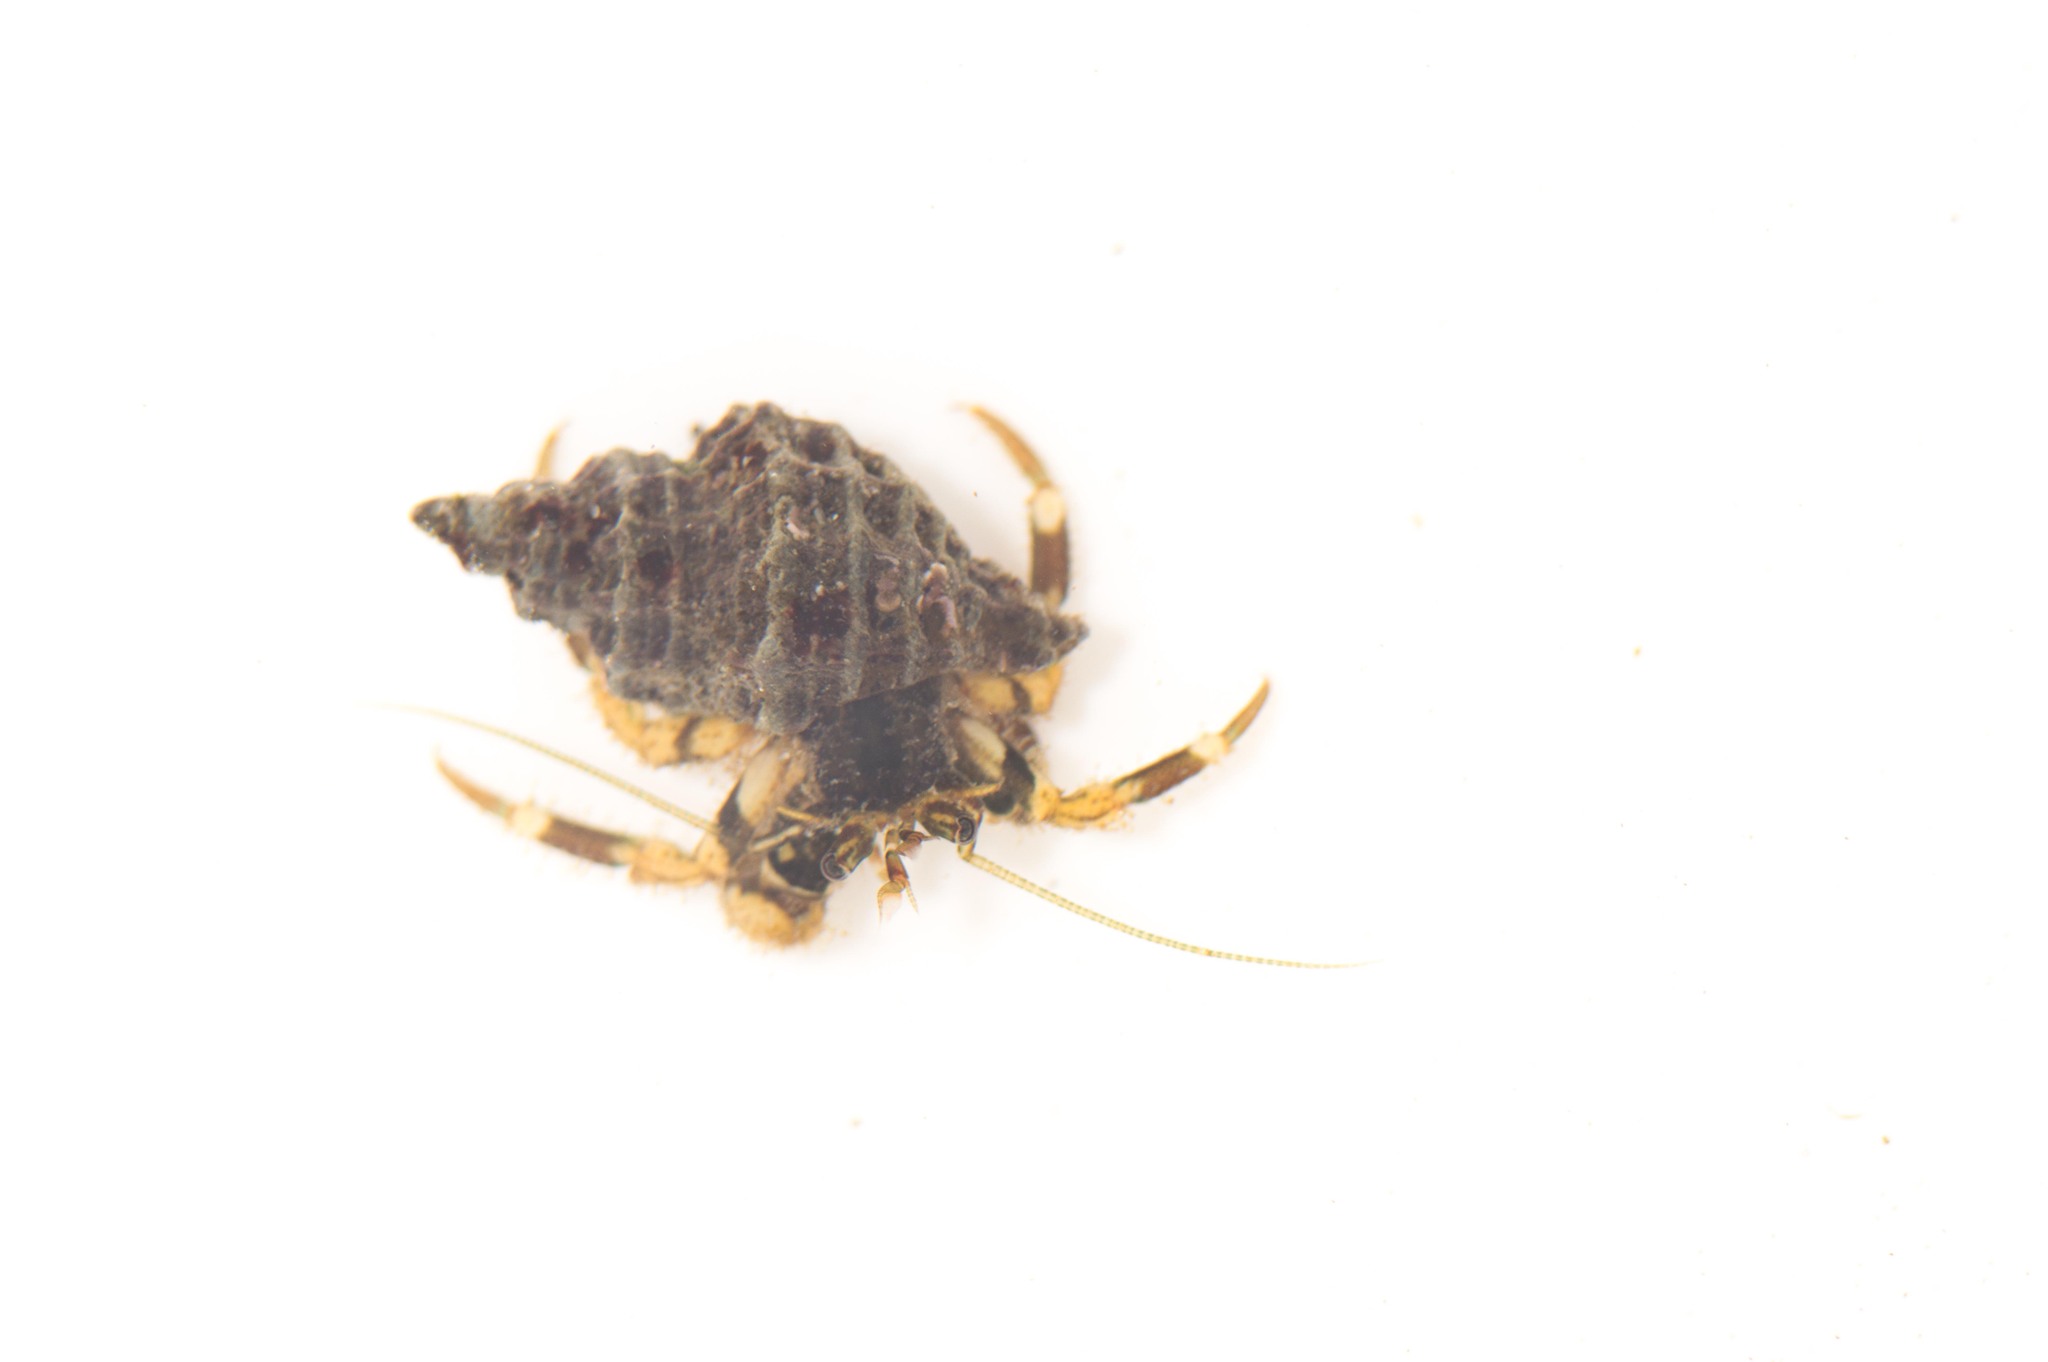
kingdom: Animalia
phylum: Arthropoda
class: Malacostraca
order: Decapoda
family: Paguridae
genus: Pagurus
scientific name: Pagurus hirsutiusculus
